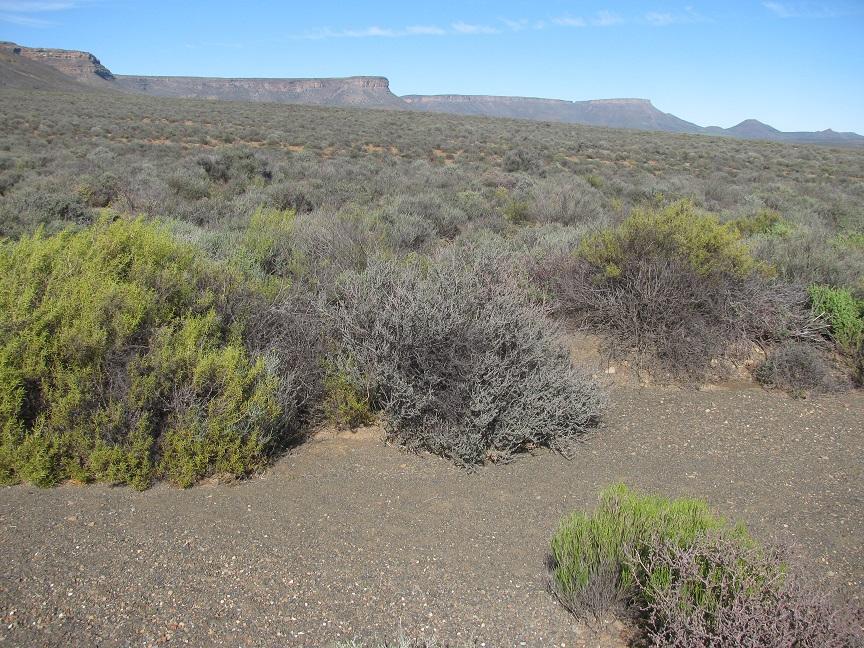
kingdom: Plantae
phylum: Tracheophyta
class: Magnoliopsida
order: Gentianales
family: Rubiaceae
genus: Nenax
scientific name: Nenax cinerea
